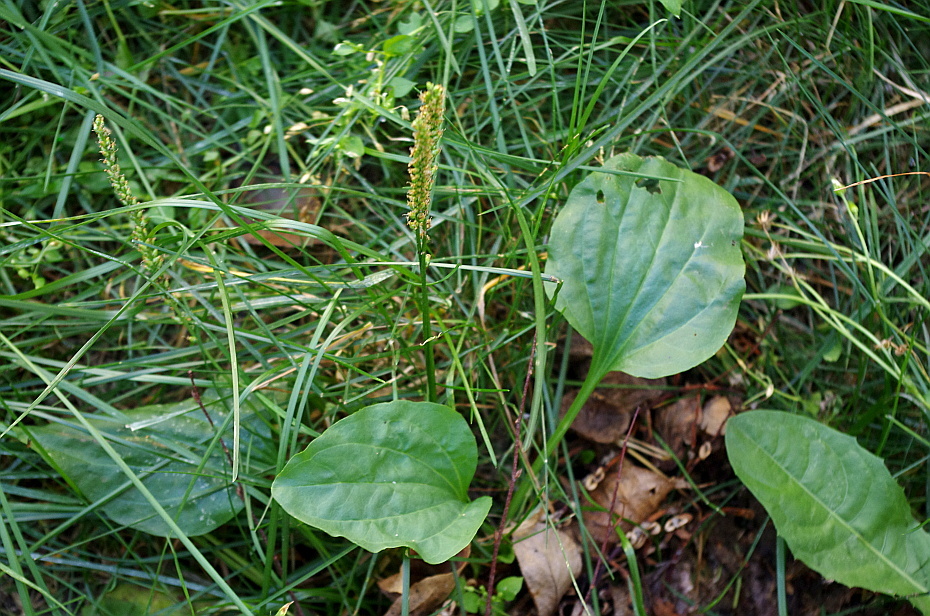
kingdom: Plantae
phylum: Tracheophyta
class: Magnoliopsida
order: Lamiales
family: Plantaginaceae
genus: Plantago
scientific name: Plantago major
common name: Common plantain
